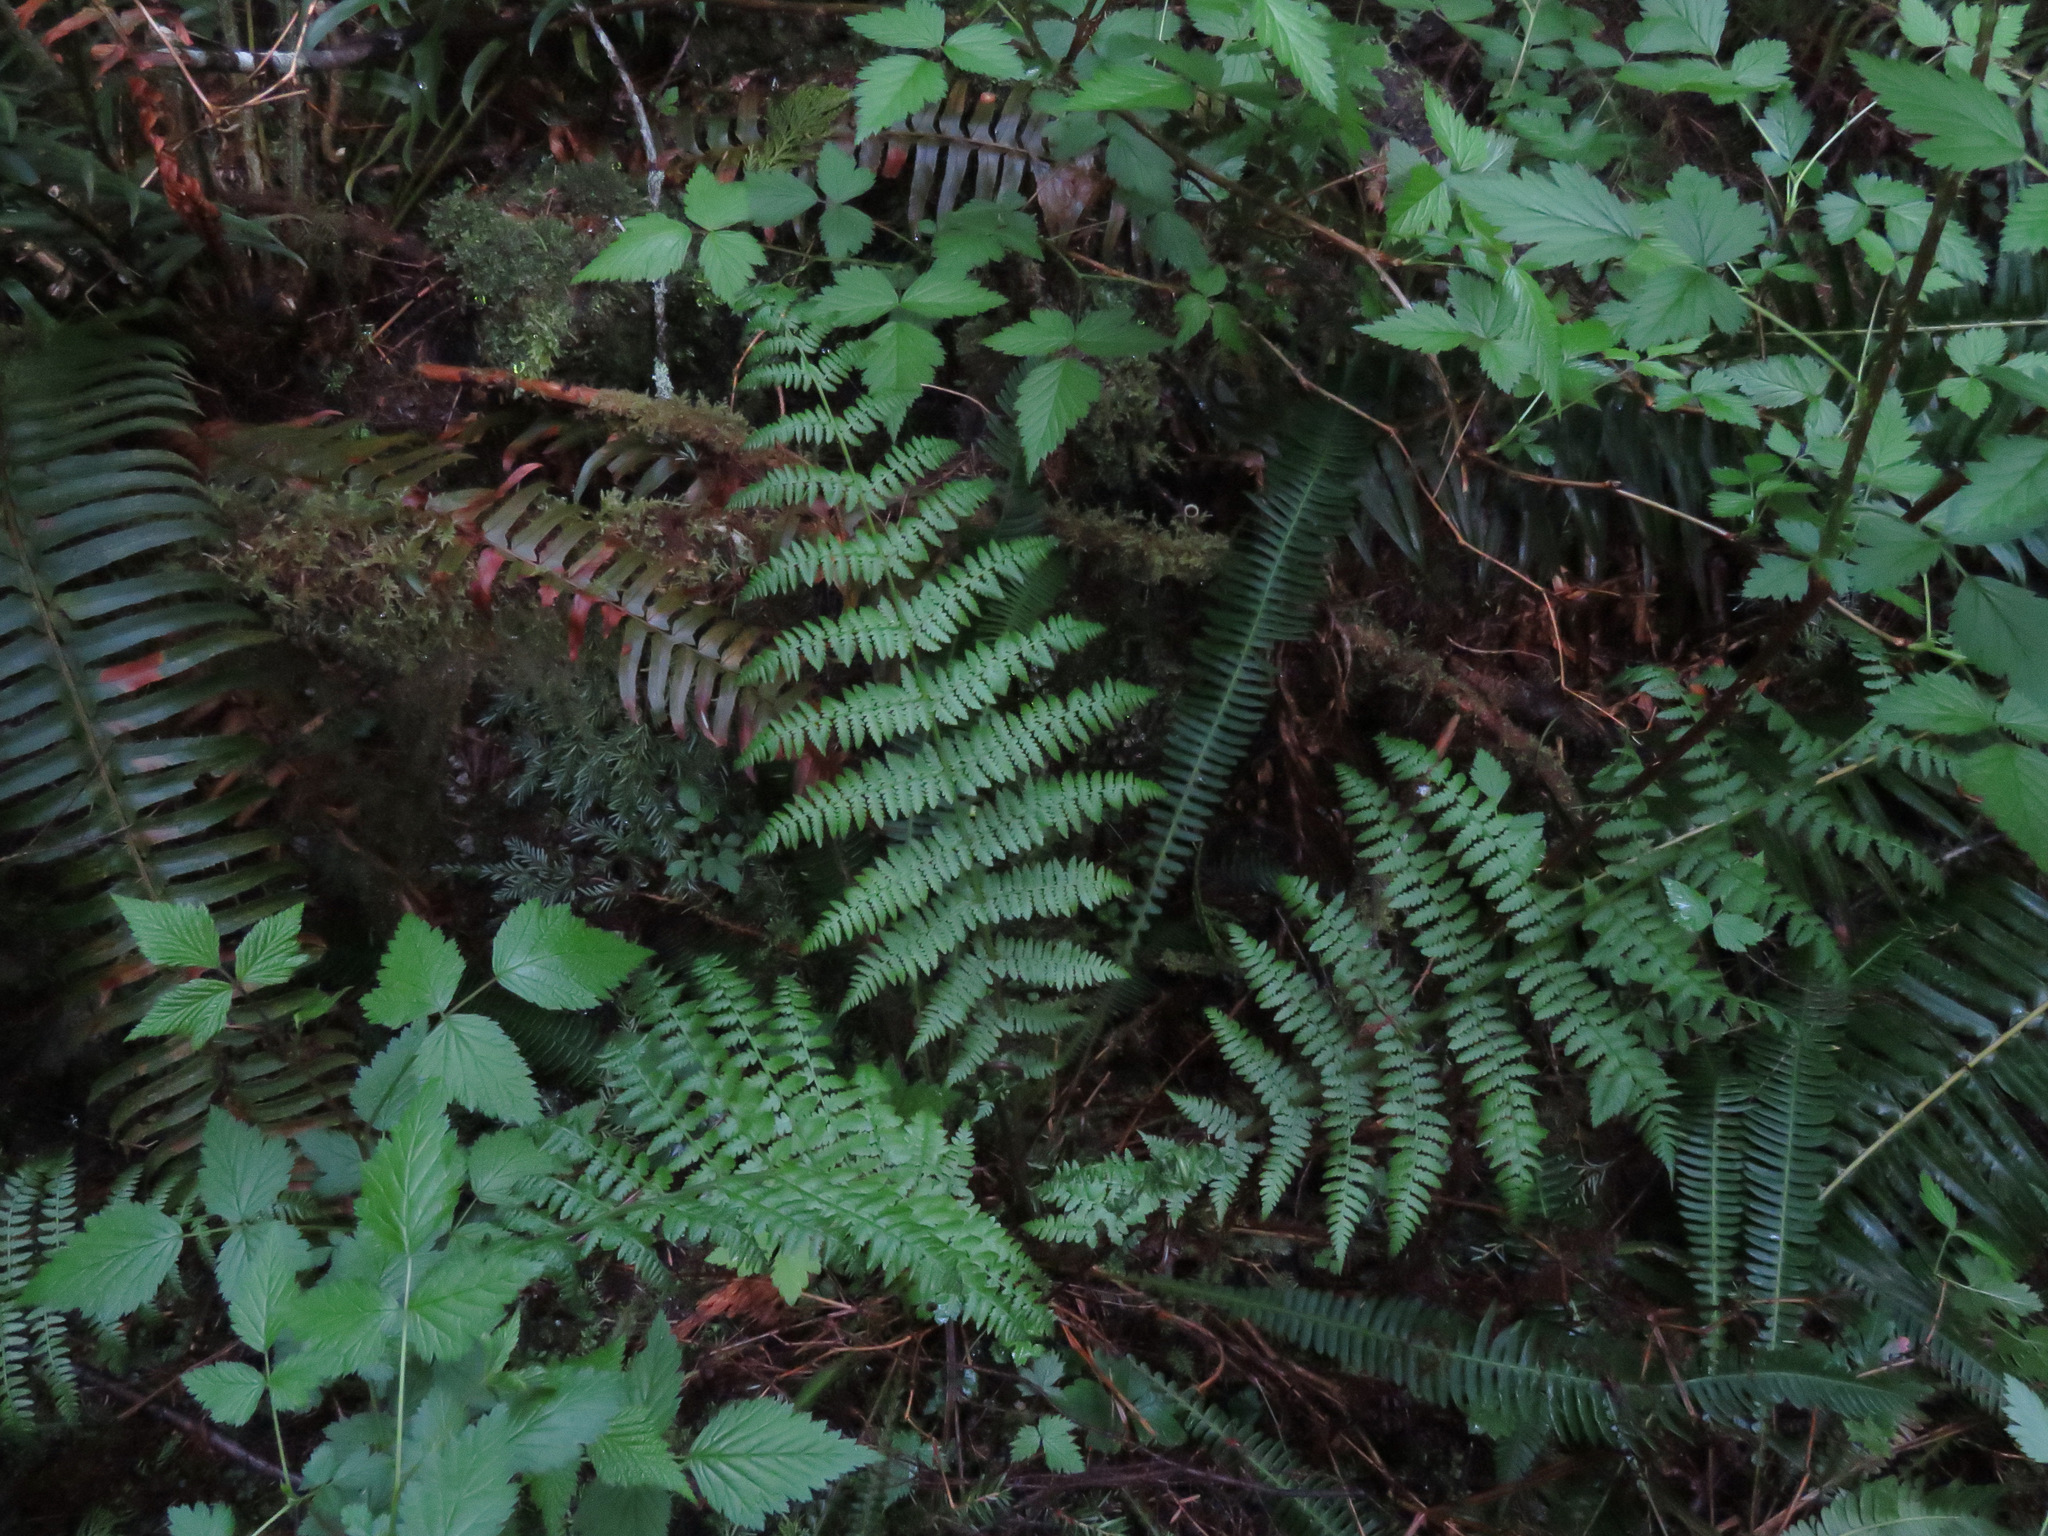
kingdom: Plantae
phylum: Tracheophyta
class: Polypodiopsida
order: Polypodiales
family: Athyriaceae
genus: Athyrium
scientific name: Athyrium filix-femina
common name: Lady fern
